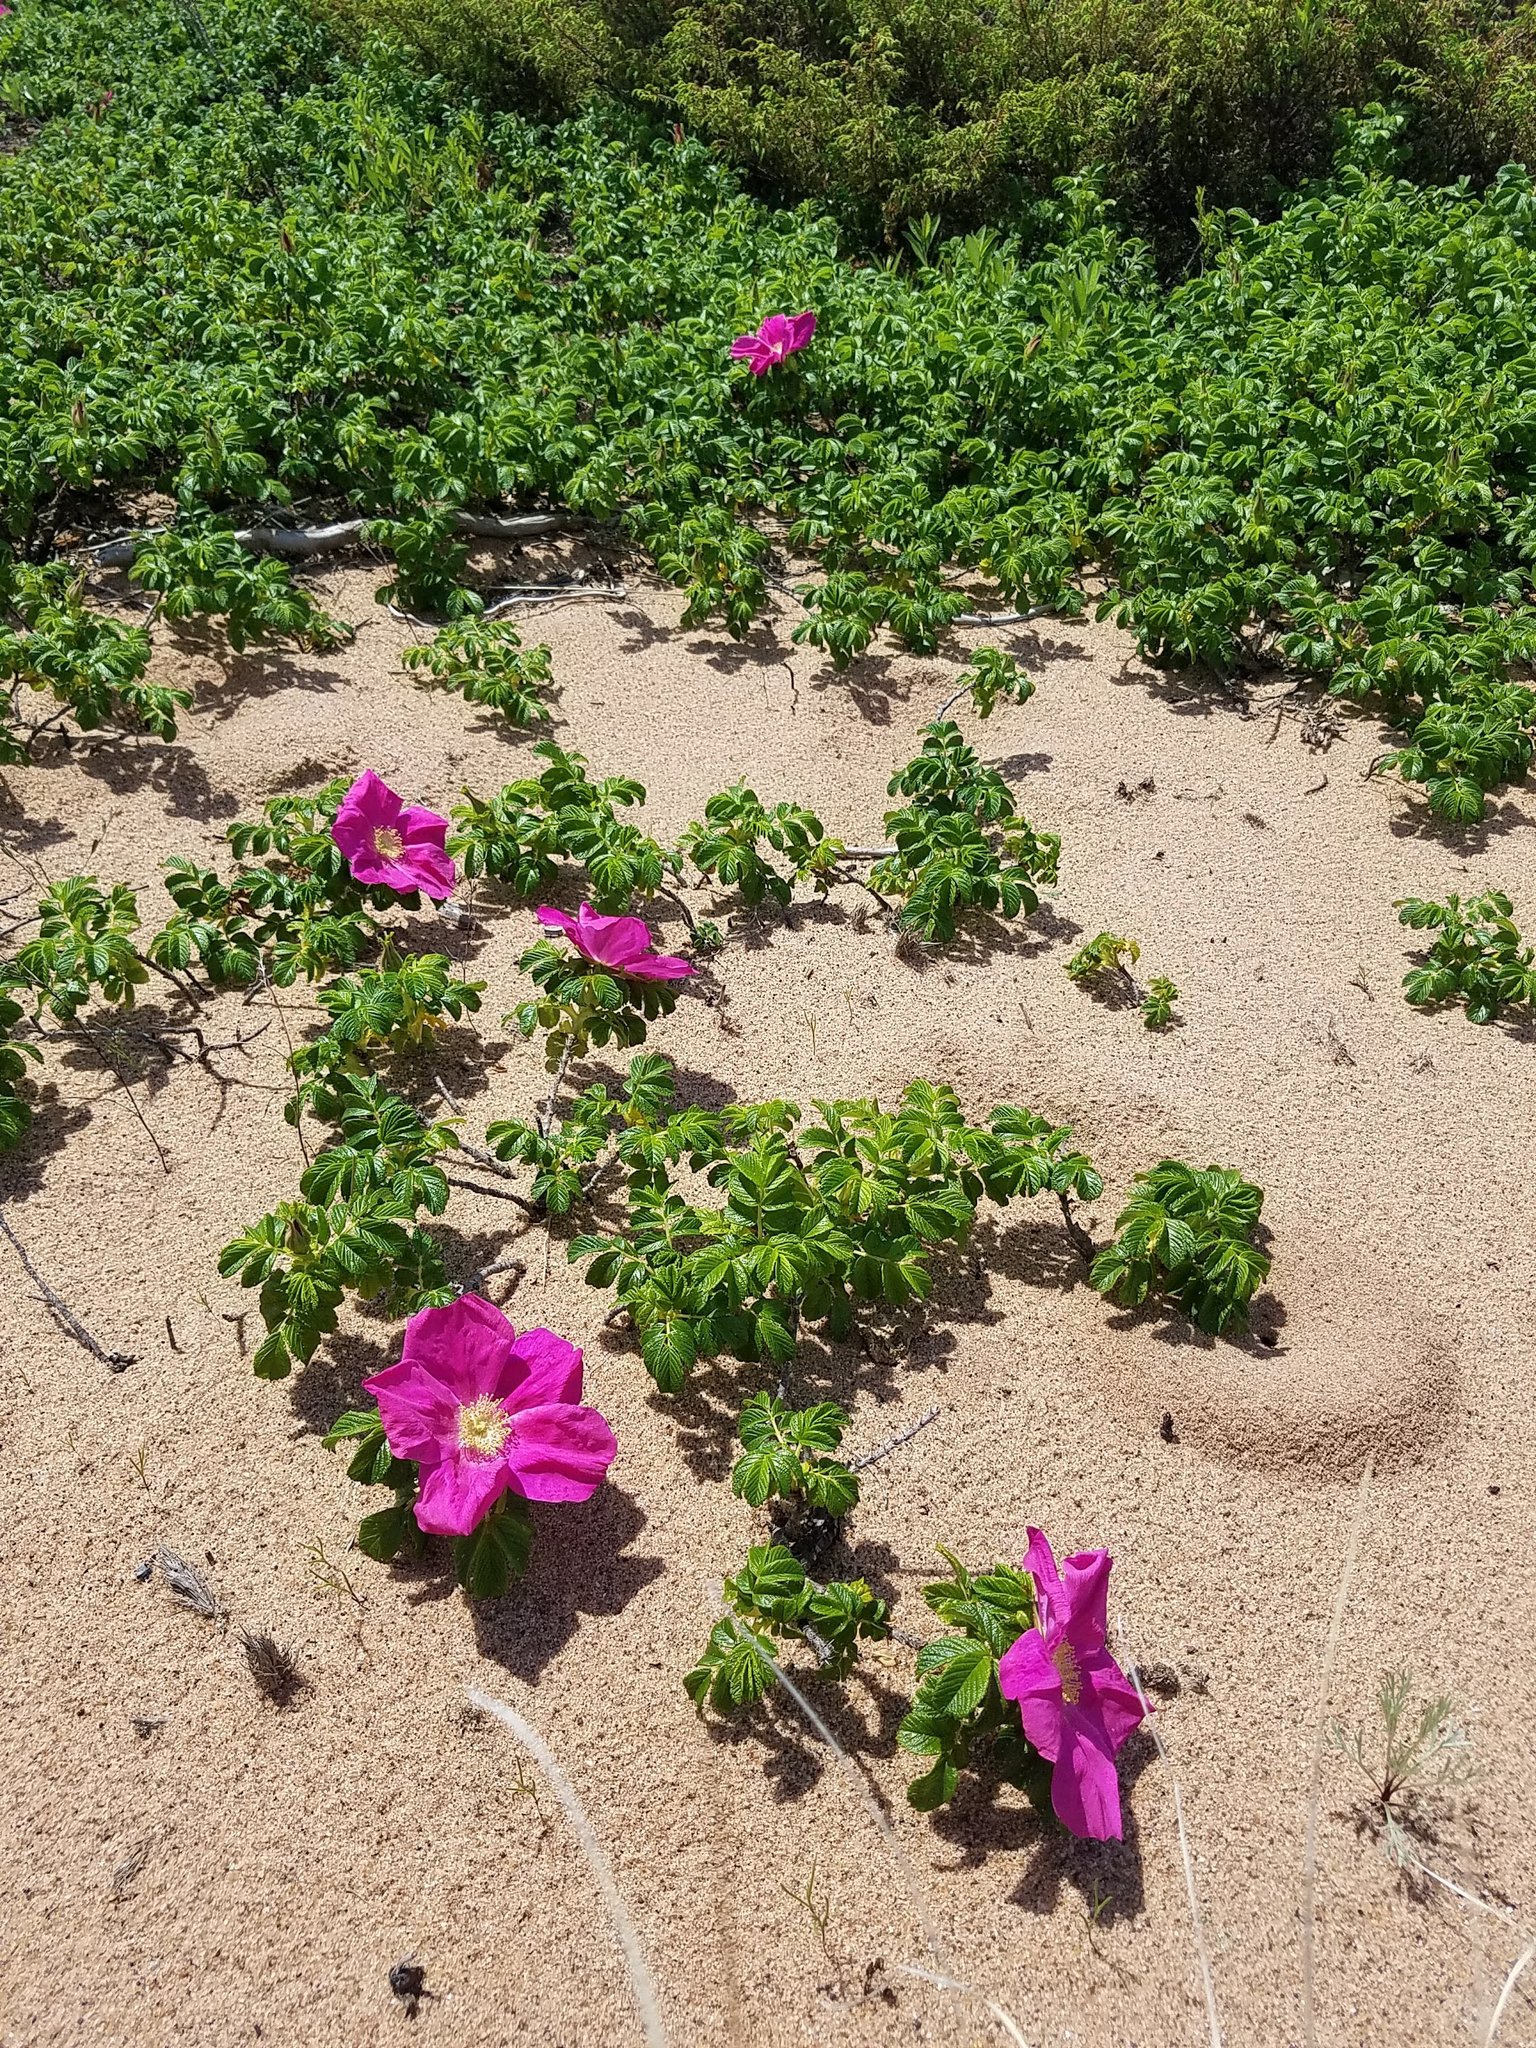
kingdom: Plantae
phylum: Tracheophyta
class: Magnoliopsida
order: Rosales
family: Rosaceae
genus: Rosa
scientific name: Rosa rugosa
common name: Japanese rose
